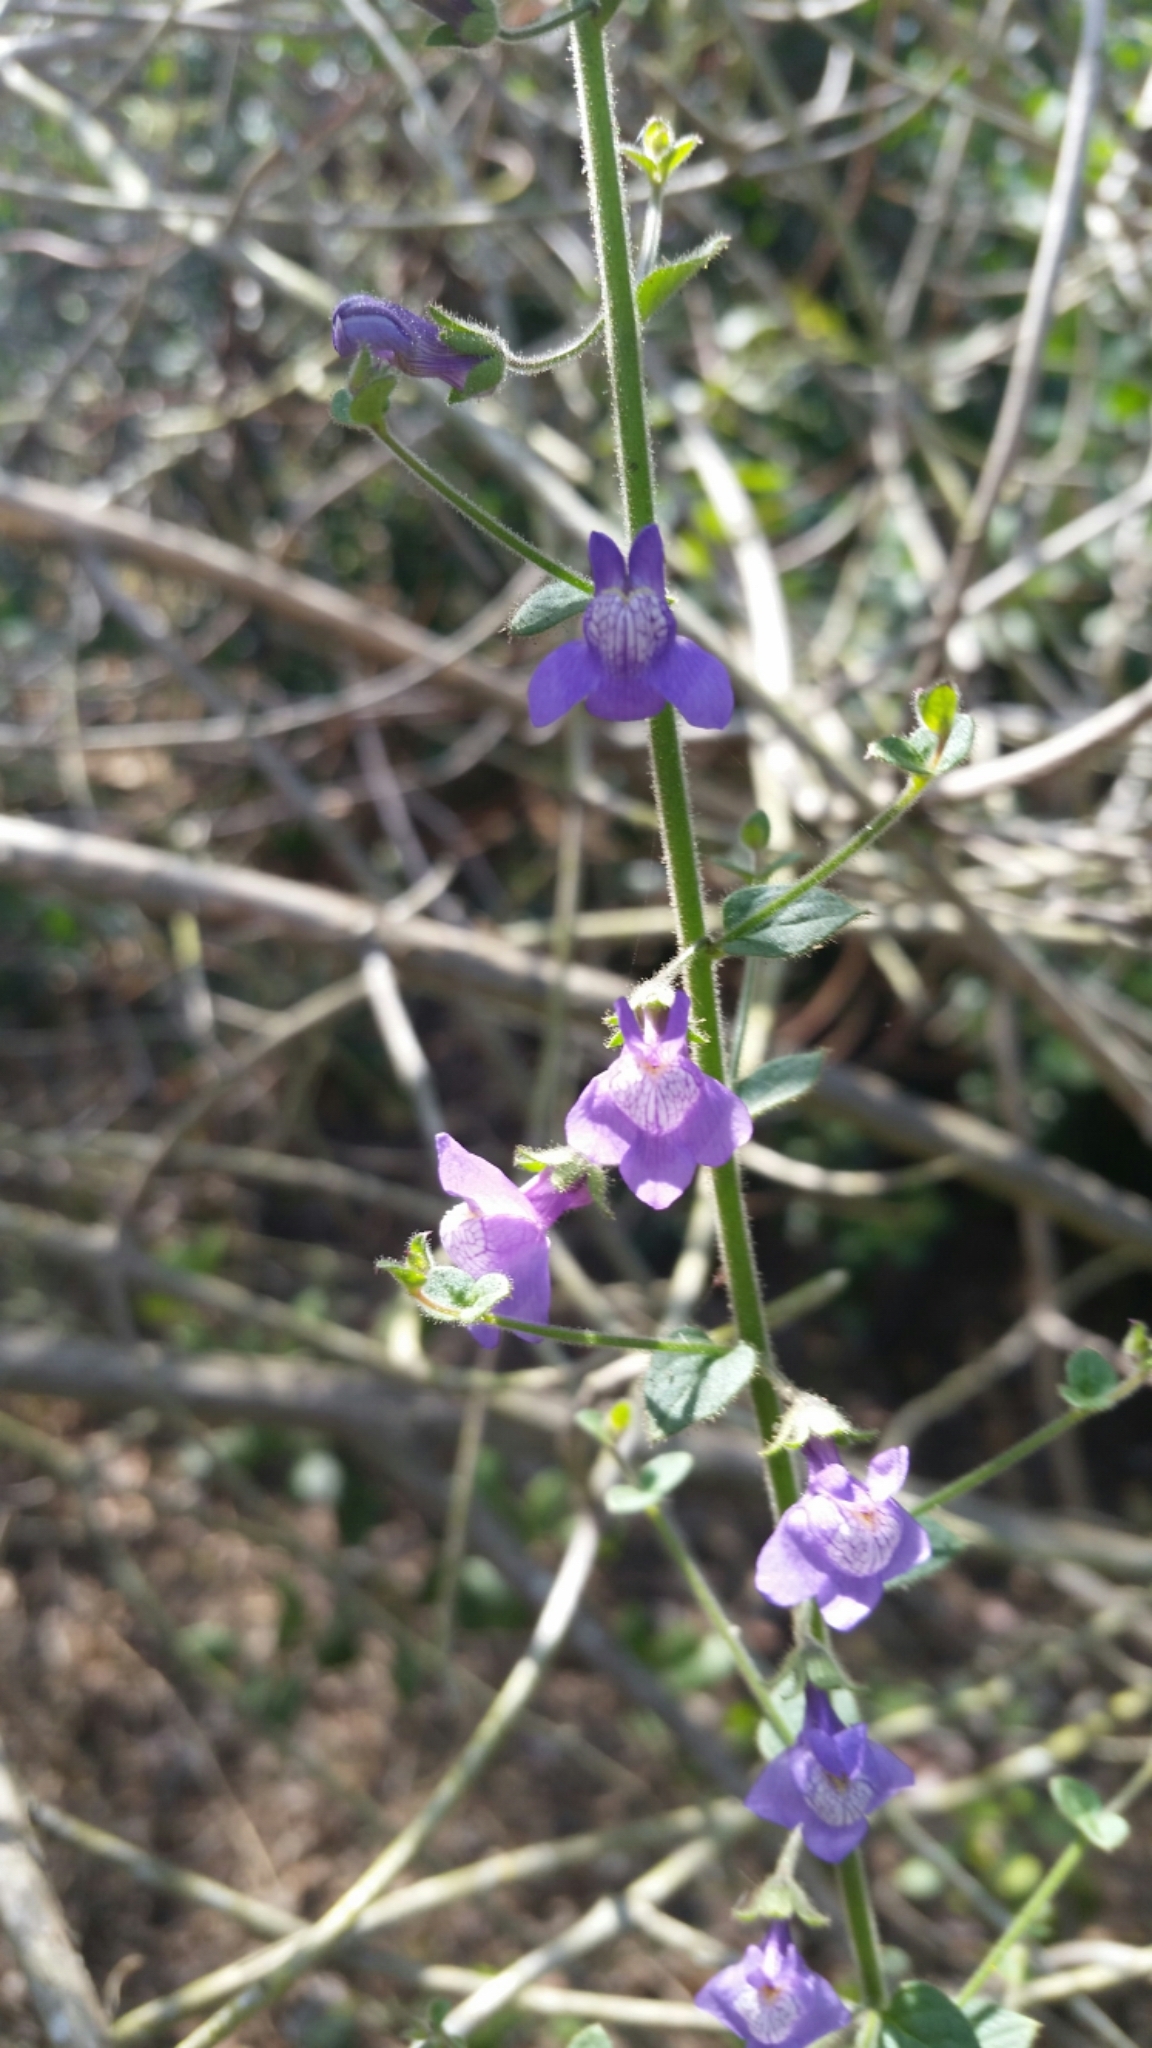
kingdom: Plantae
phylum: Tracheophyta
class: Magnoliopsida
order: Lamiales
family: Plantaginaceae
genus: Sairocarpus
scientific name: Sairocarpus nuttallianus
